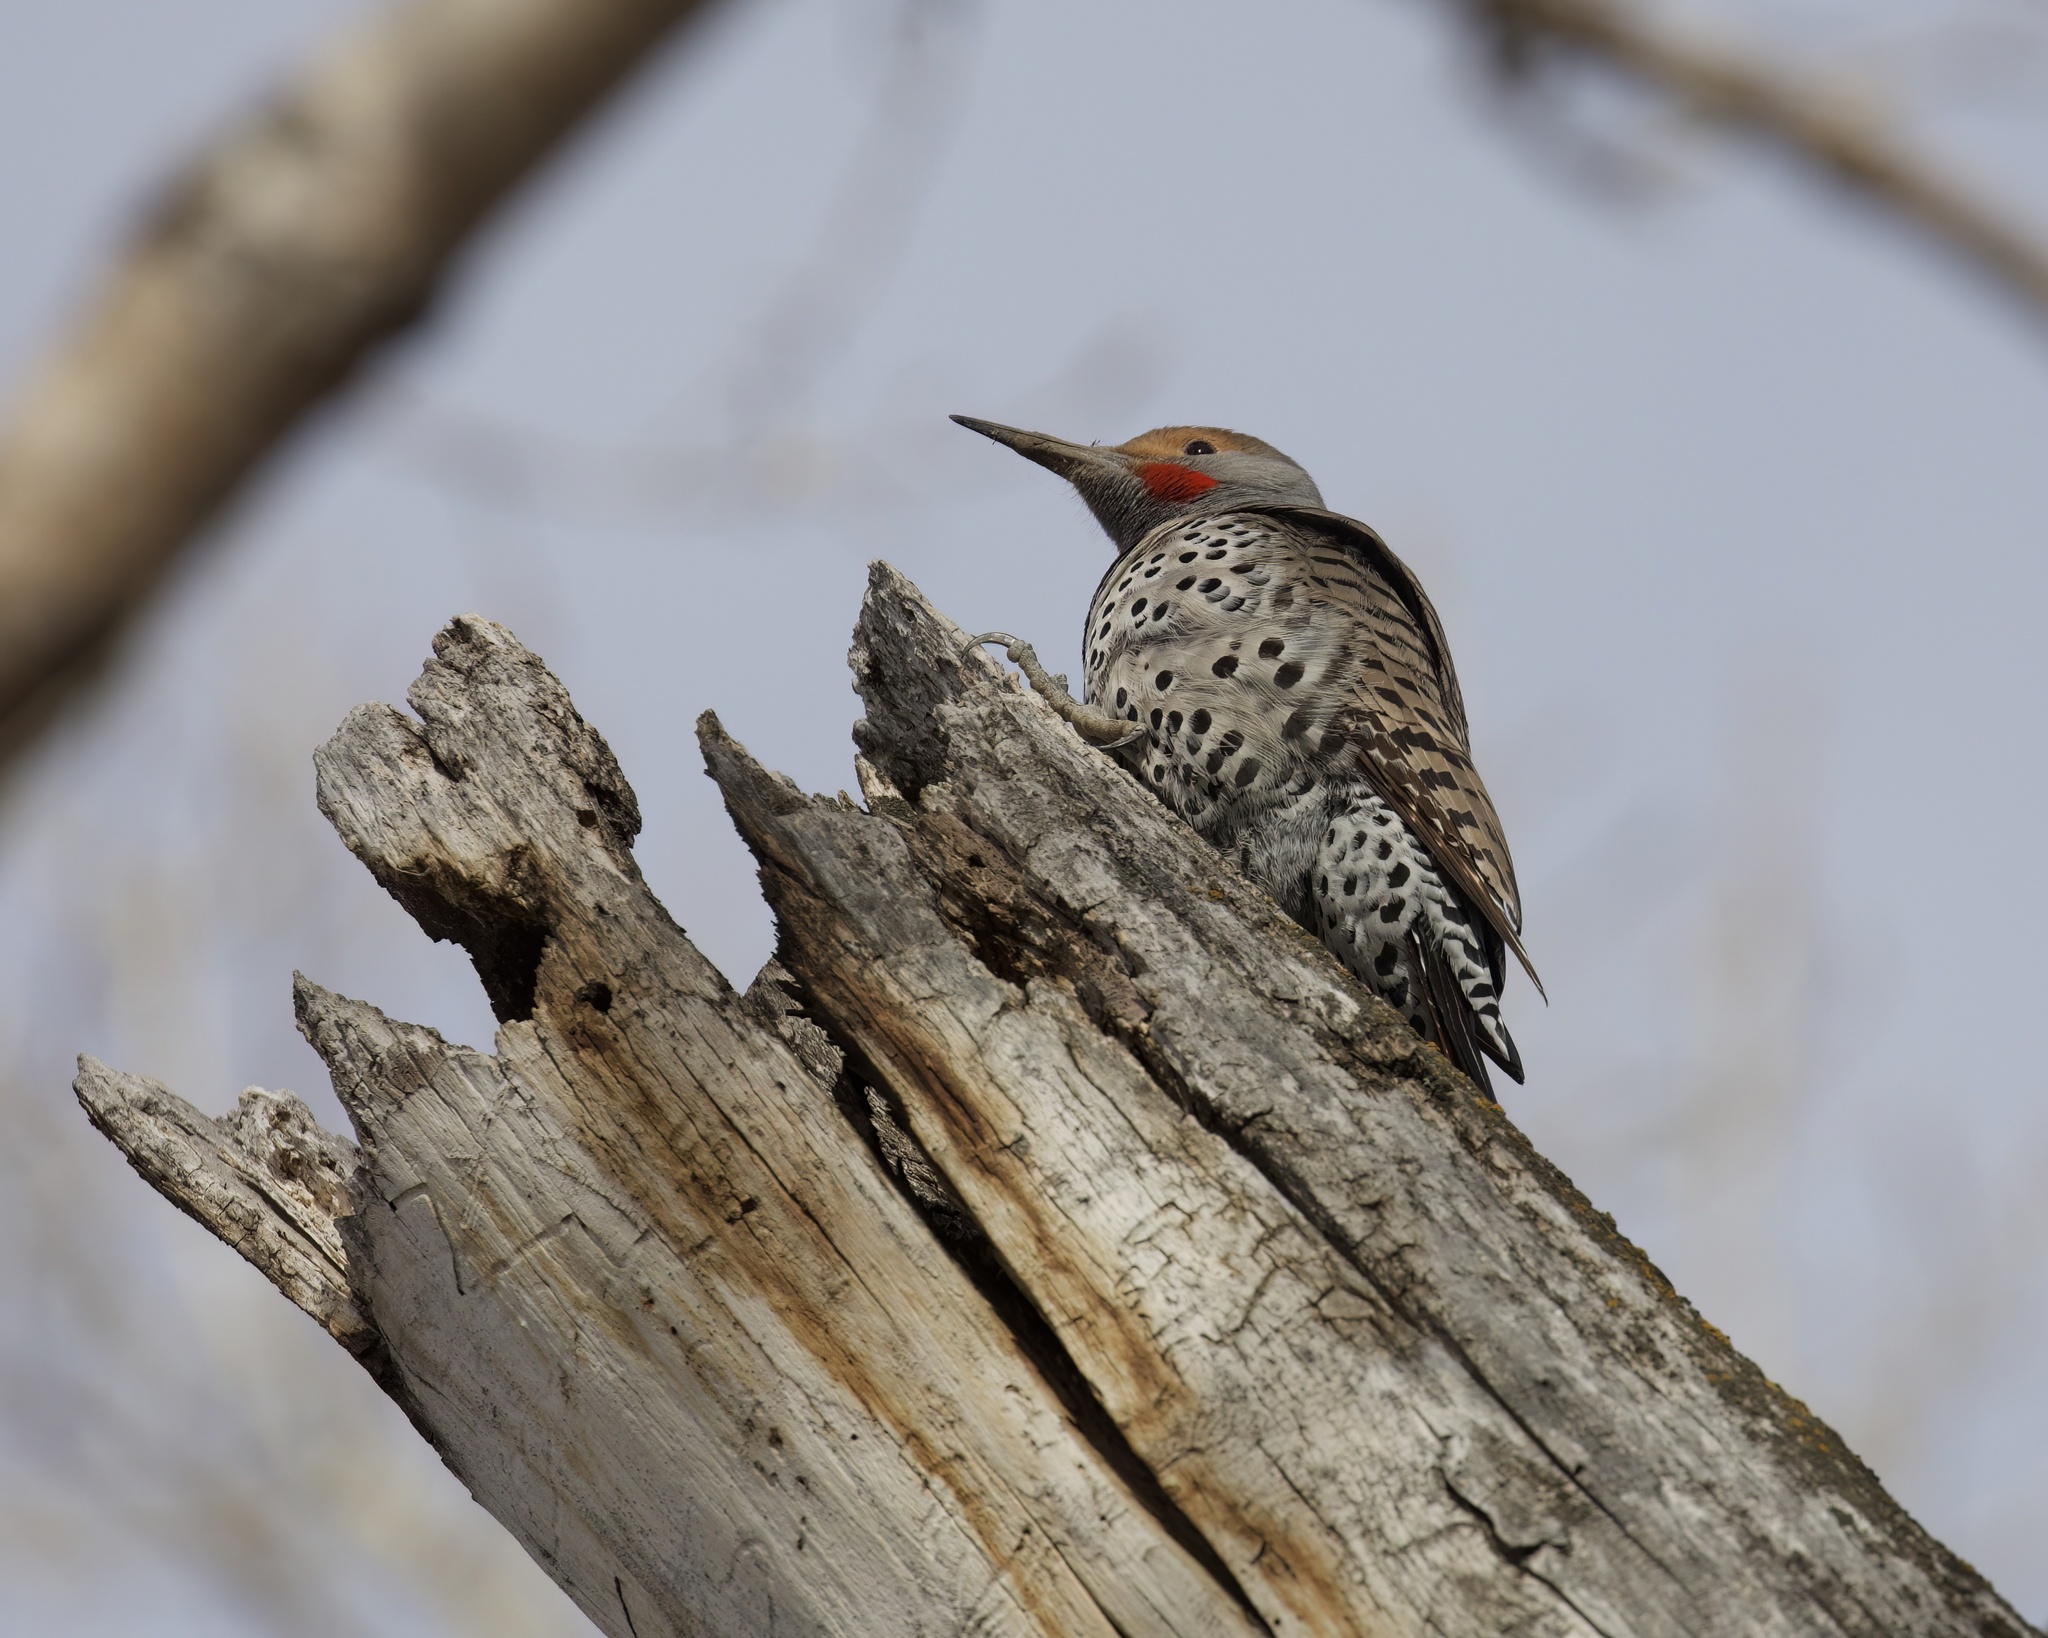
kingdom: Animalia
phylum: Chordata
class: Aves
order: Piciformes
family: Picidae
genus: Colaptes
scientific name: Colaptes auratus
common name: Northern flicker
